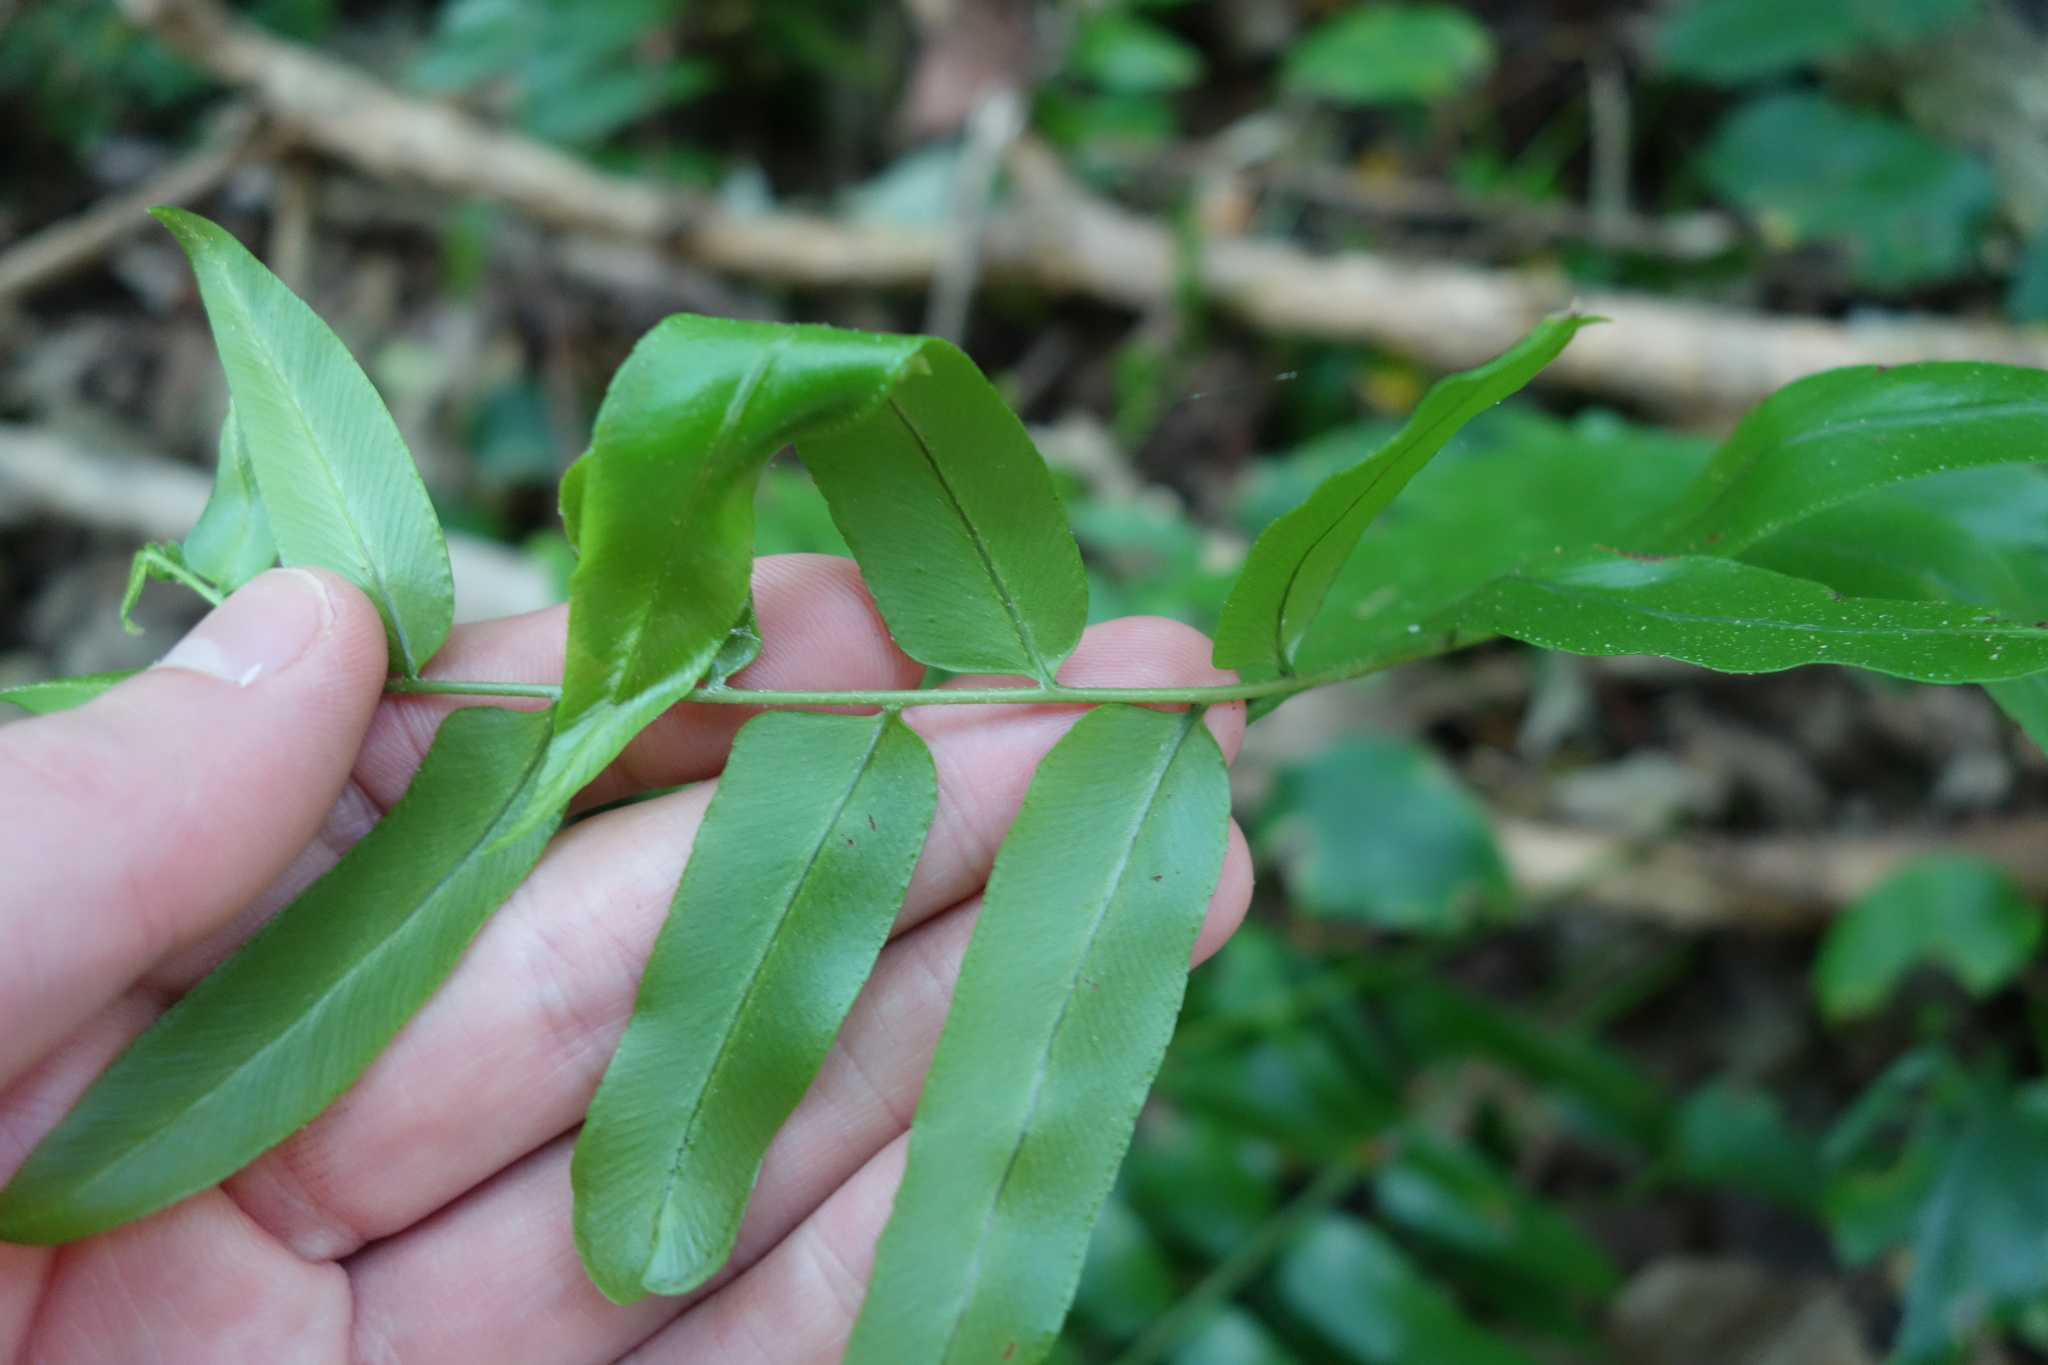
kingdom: Plantae
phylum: Tracheophyta
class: Polypodiopsida
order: Polypodiales
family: Nephrolepidaceae
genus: Nephrolepis
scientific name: Nephrolepis biserrata
